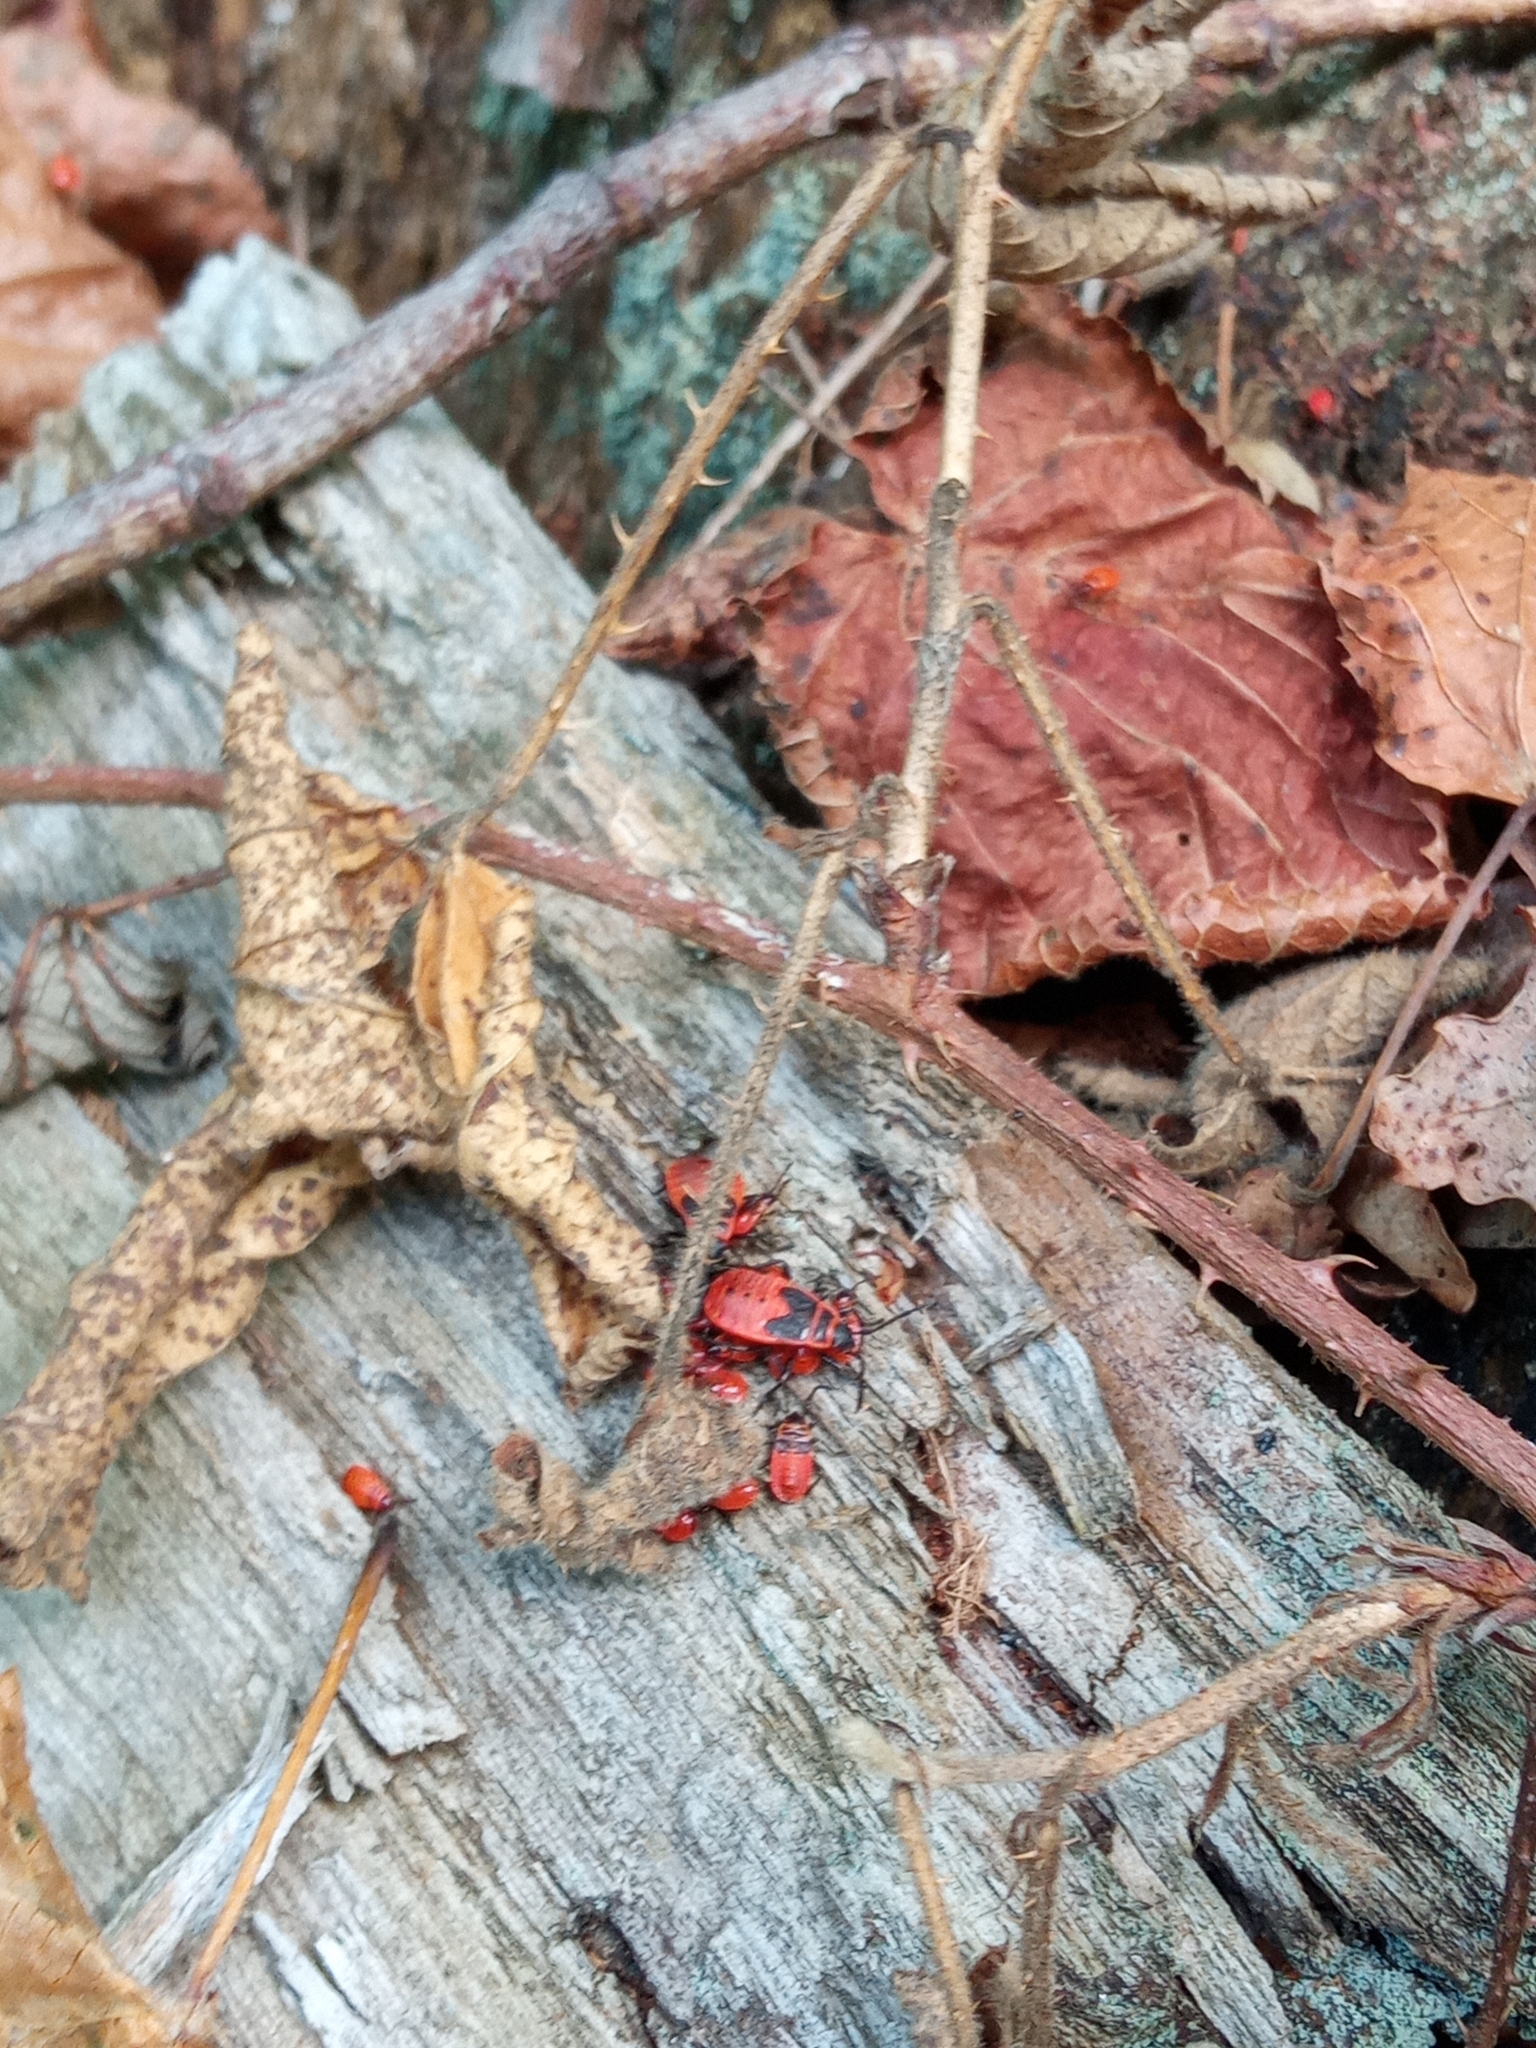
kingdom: Animalia
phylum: Arthropoda
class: Insecta
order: Hemiptera
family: Pyrrhocoridae
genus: Pyrrhocoris
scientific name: Pyrrhocoris apterus
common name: Firebug
